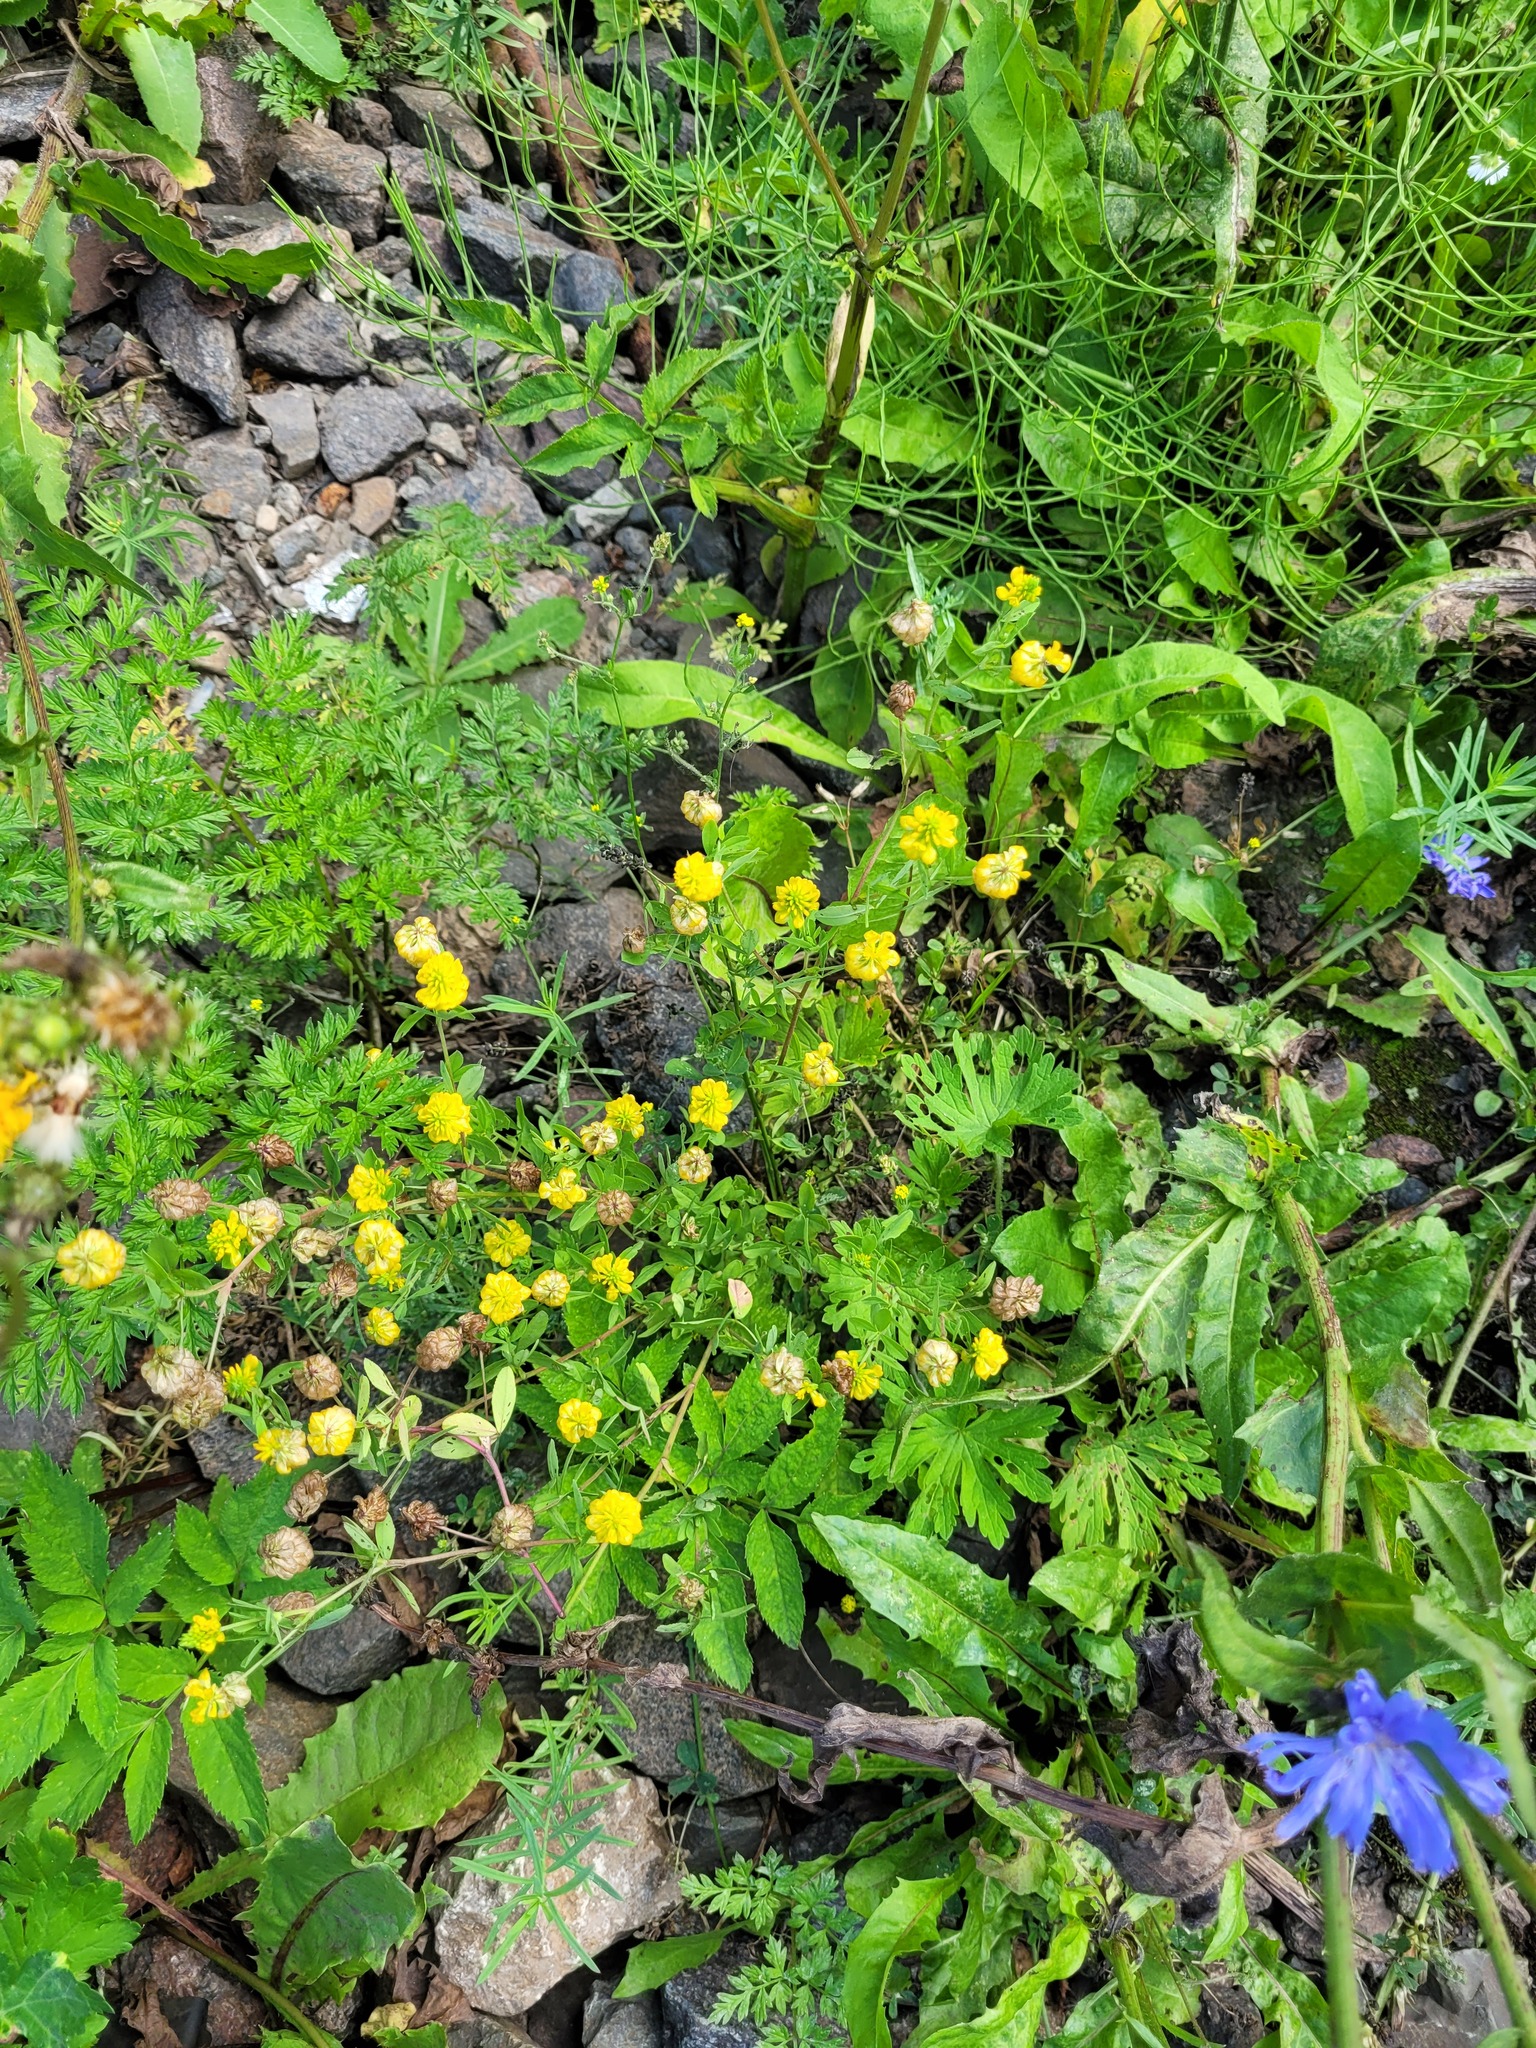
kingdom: Plantae
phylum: Tracheophyta
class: Magnoliopsida
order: Fabales
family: Fabaceae
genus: Trifolium
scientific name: Trifolium aureum
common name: Golden clover
